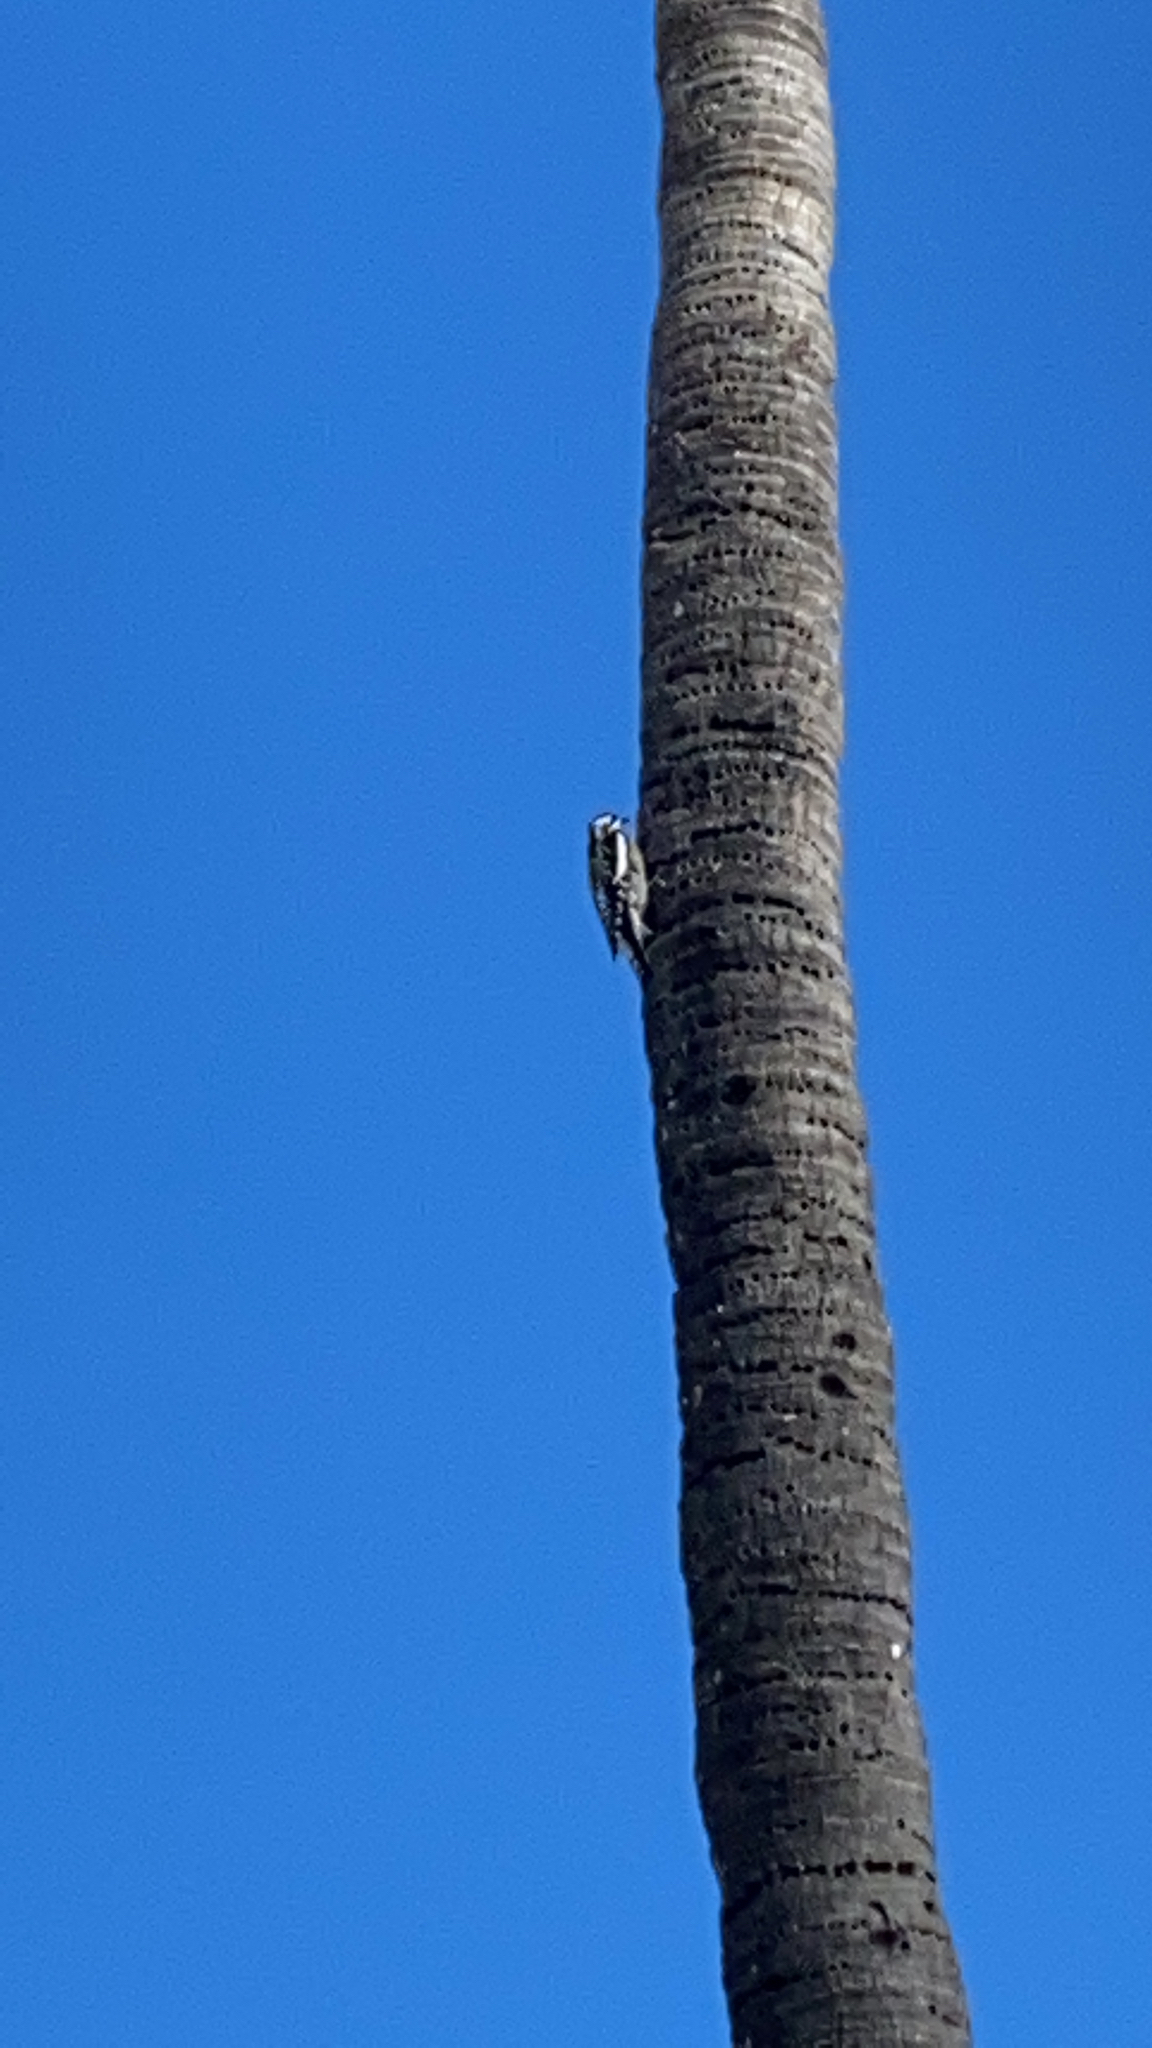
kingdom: Animalia
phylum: Chordata
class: Aves
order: Piciformes
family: Picidae
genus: Sphyrapicus
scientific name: Sphyrapicus varius
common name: Yellow-bellied sapsucker
